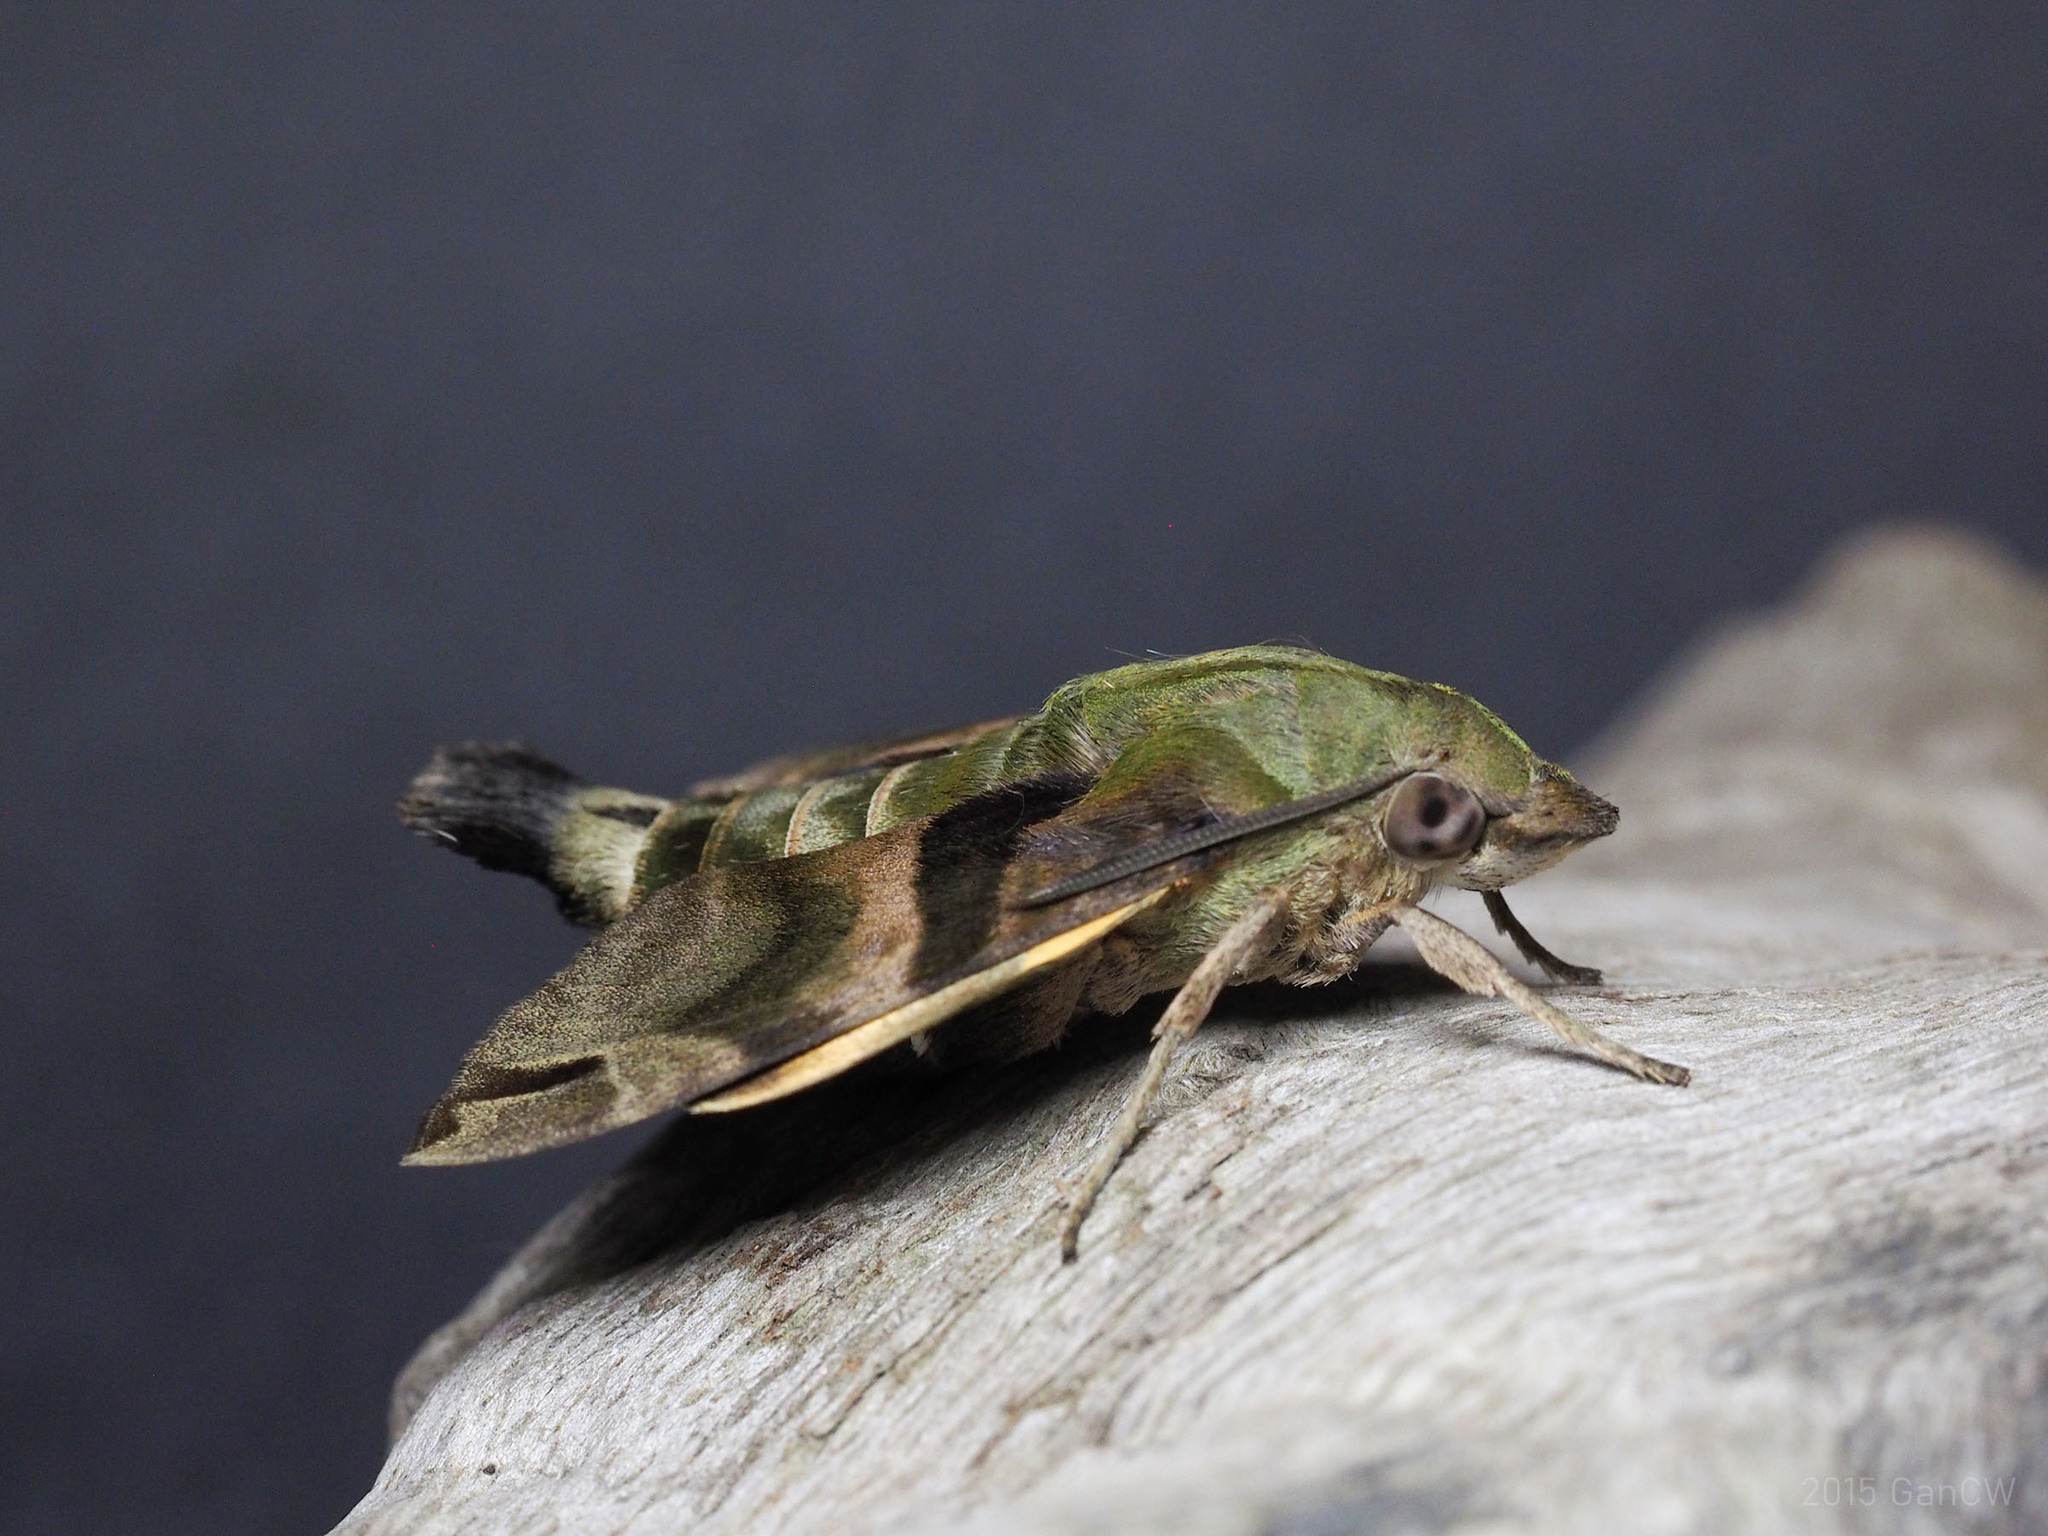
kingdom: Animalia
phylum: Arthropoda
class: Insecta
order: Lepidoptera
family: Sphingidae
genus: Macroglossum
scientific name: Macroglossum sitiene
